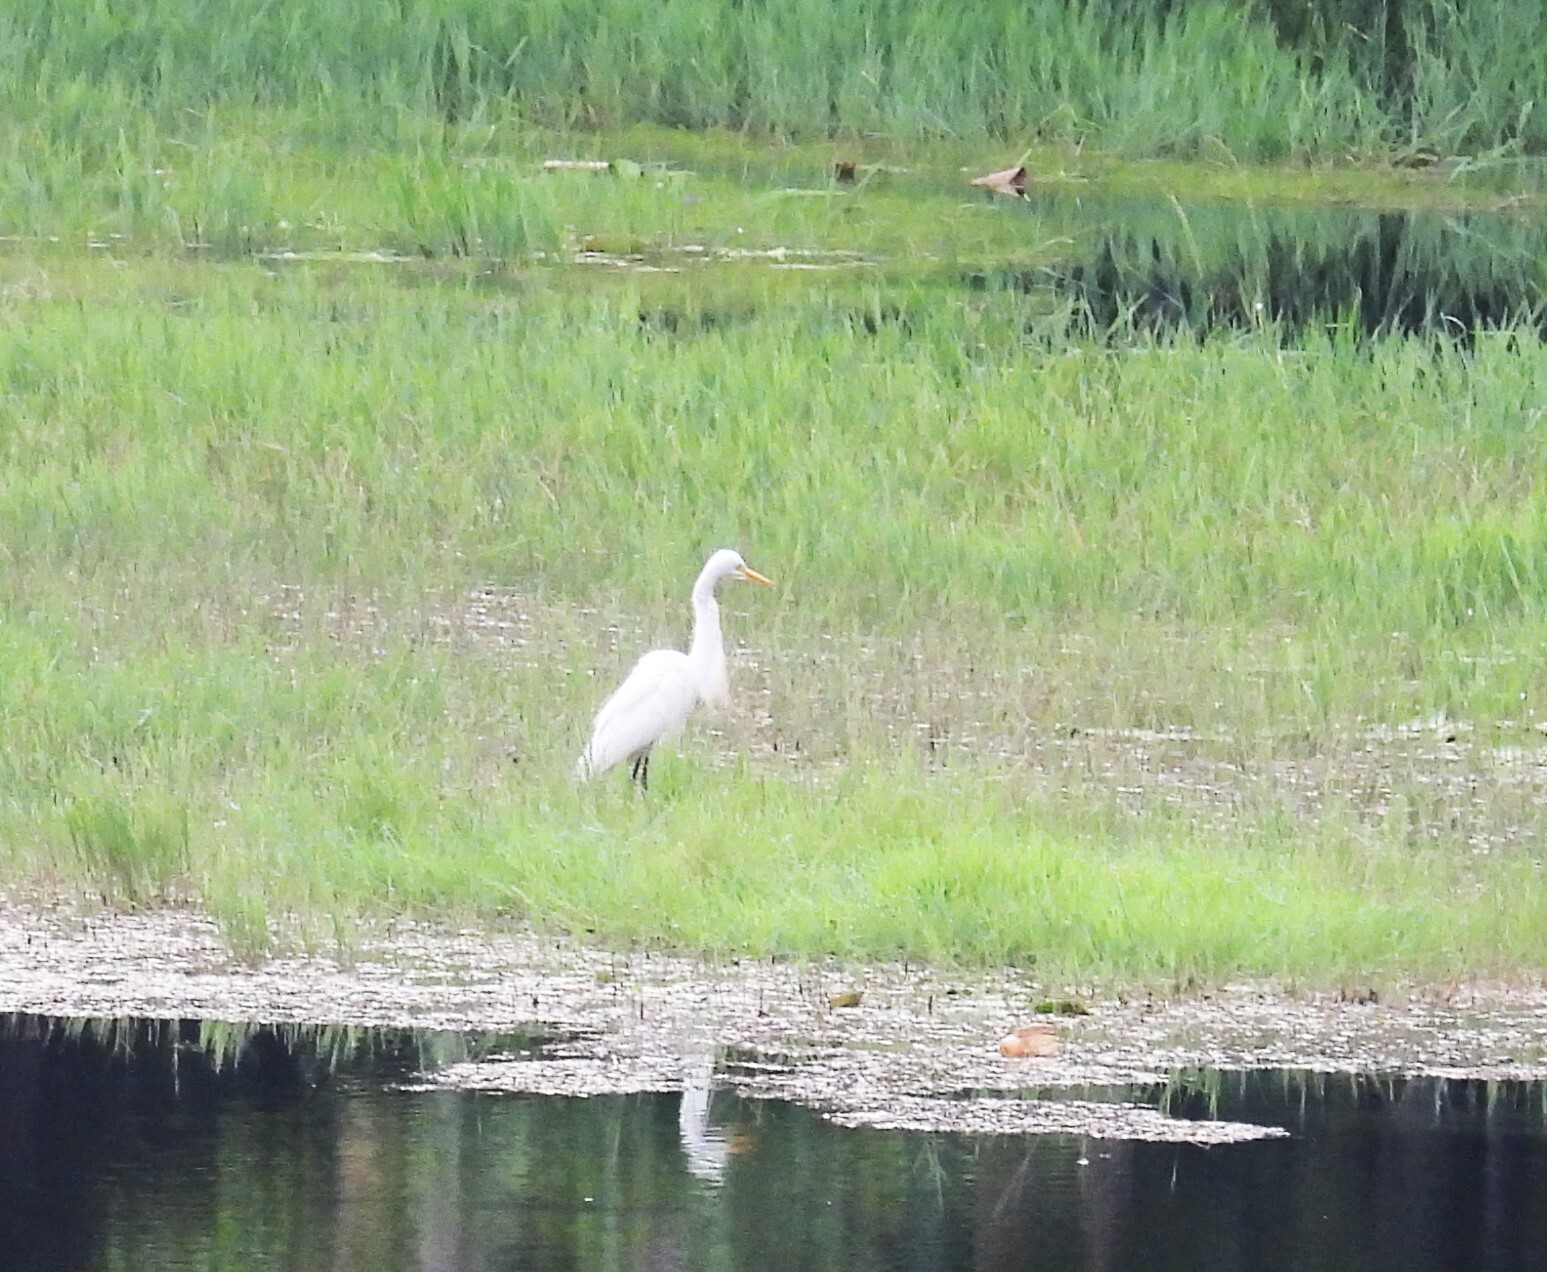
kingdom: Animalia
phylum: Chordata
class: Aves
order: Pelecaniformes
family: Ardeidae
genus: Egretta
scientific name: Egretta intermedia
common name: Intermediate egret
